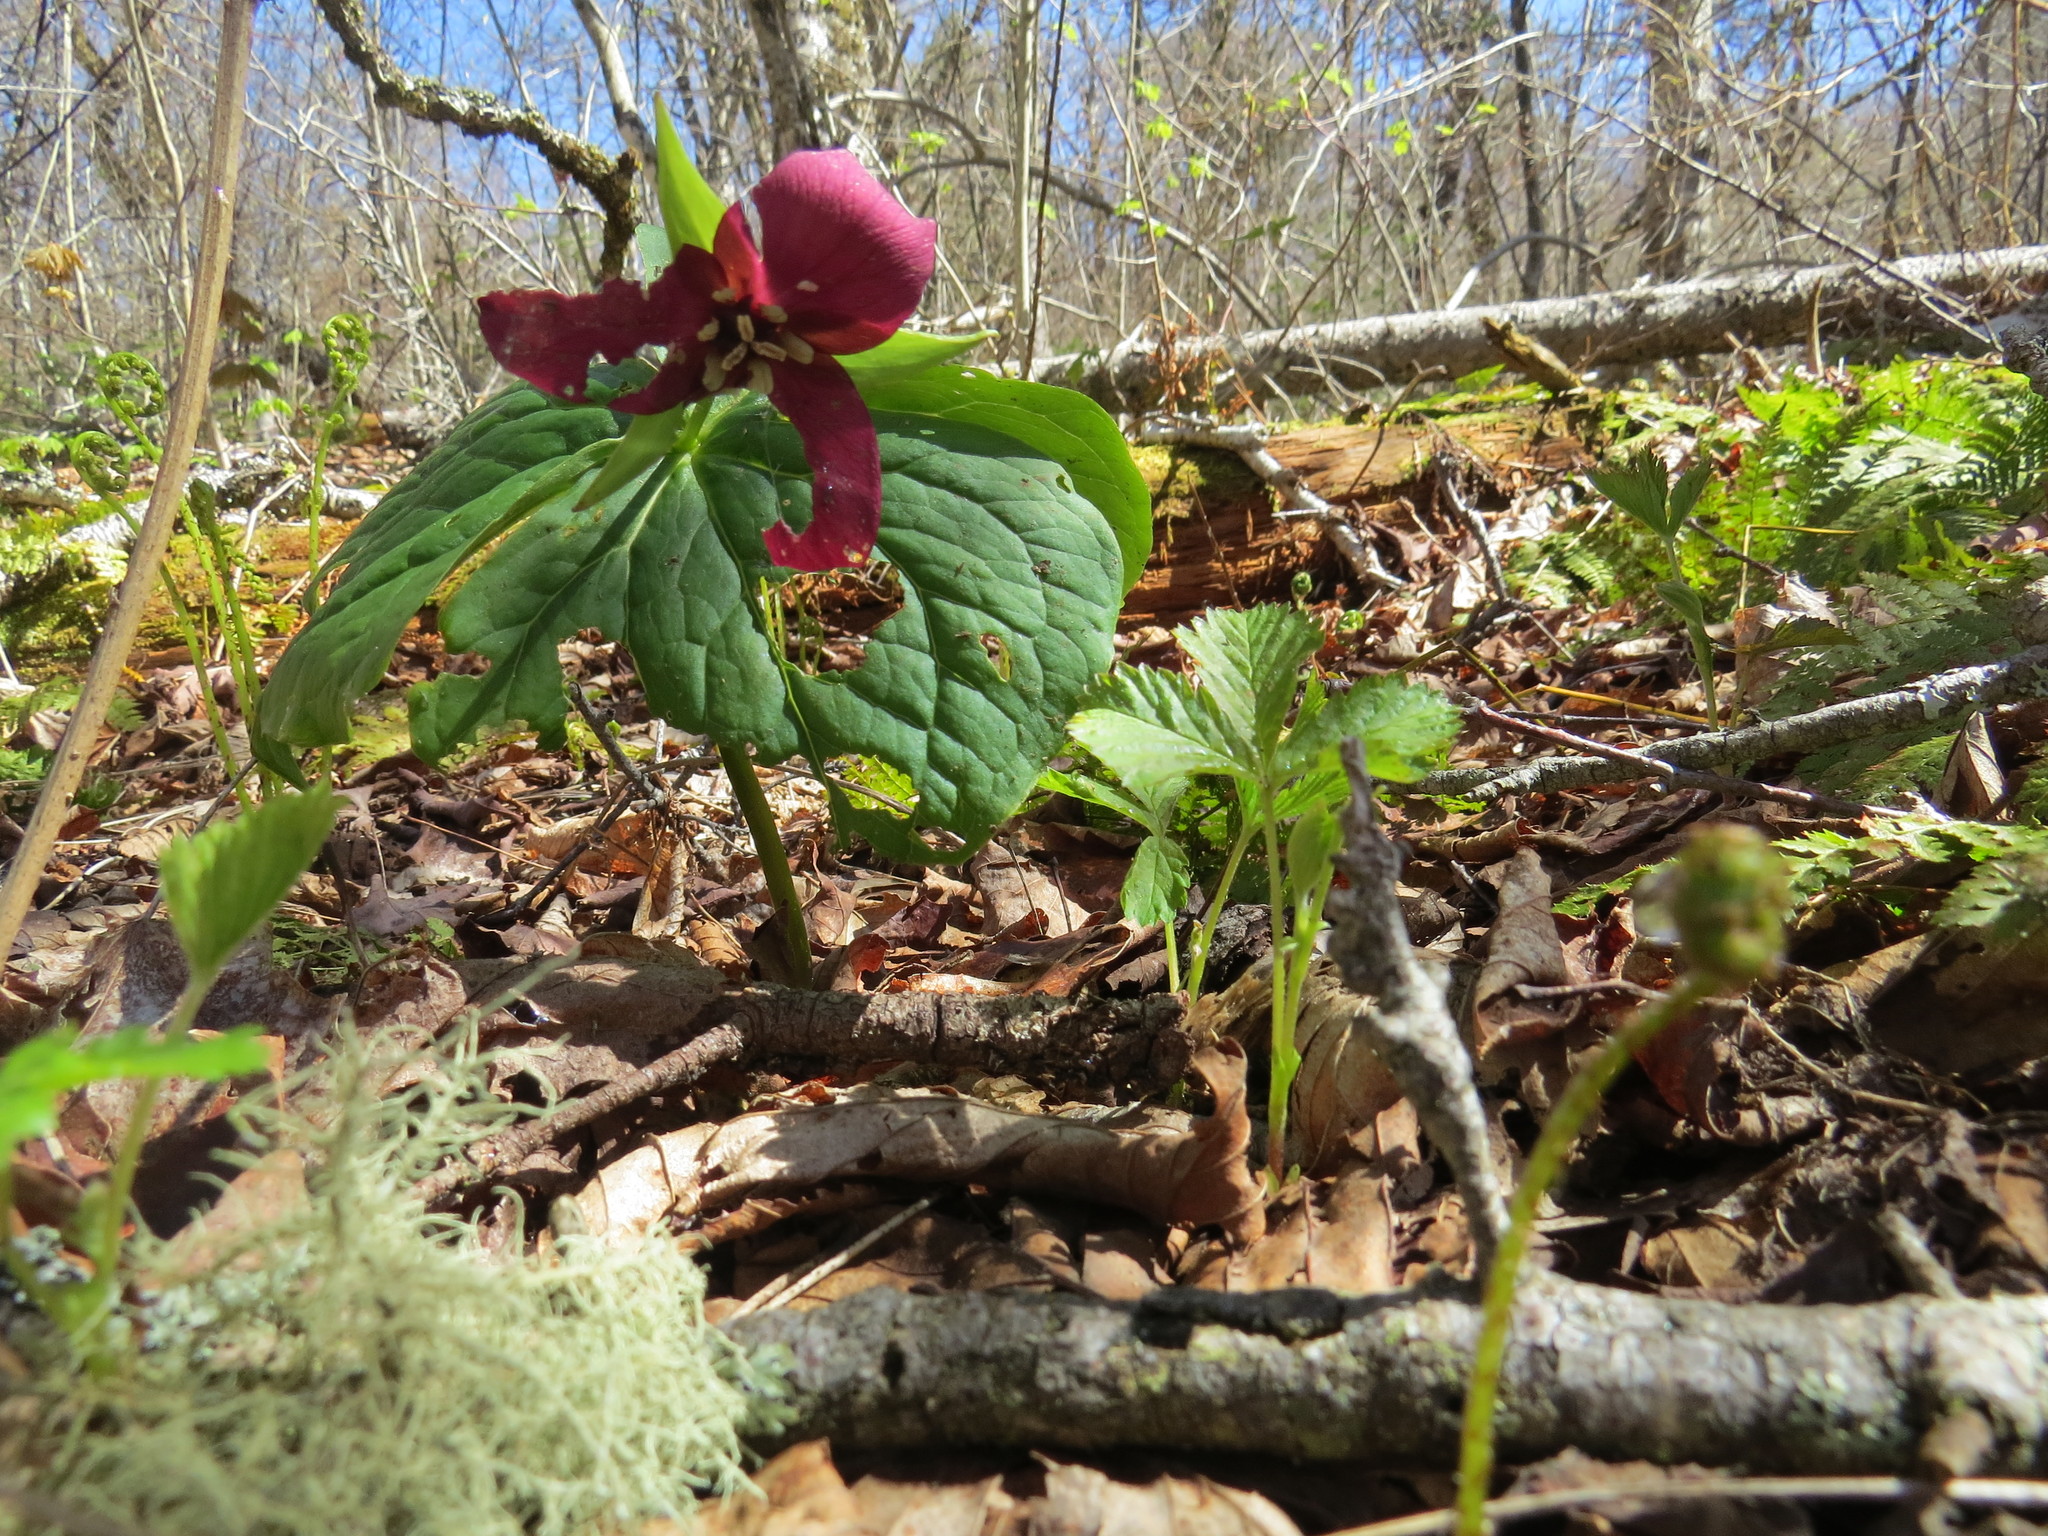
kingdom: Plantae
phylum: Tracheophyta
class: Liliopsida
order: Liliales
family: Melanthiaceae
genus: Trillium
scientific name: Trillium erectum
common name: Purple trillium
